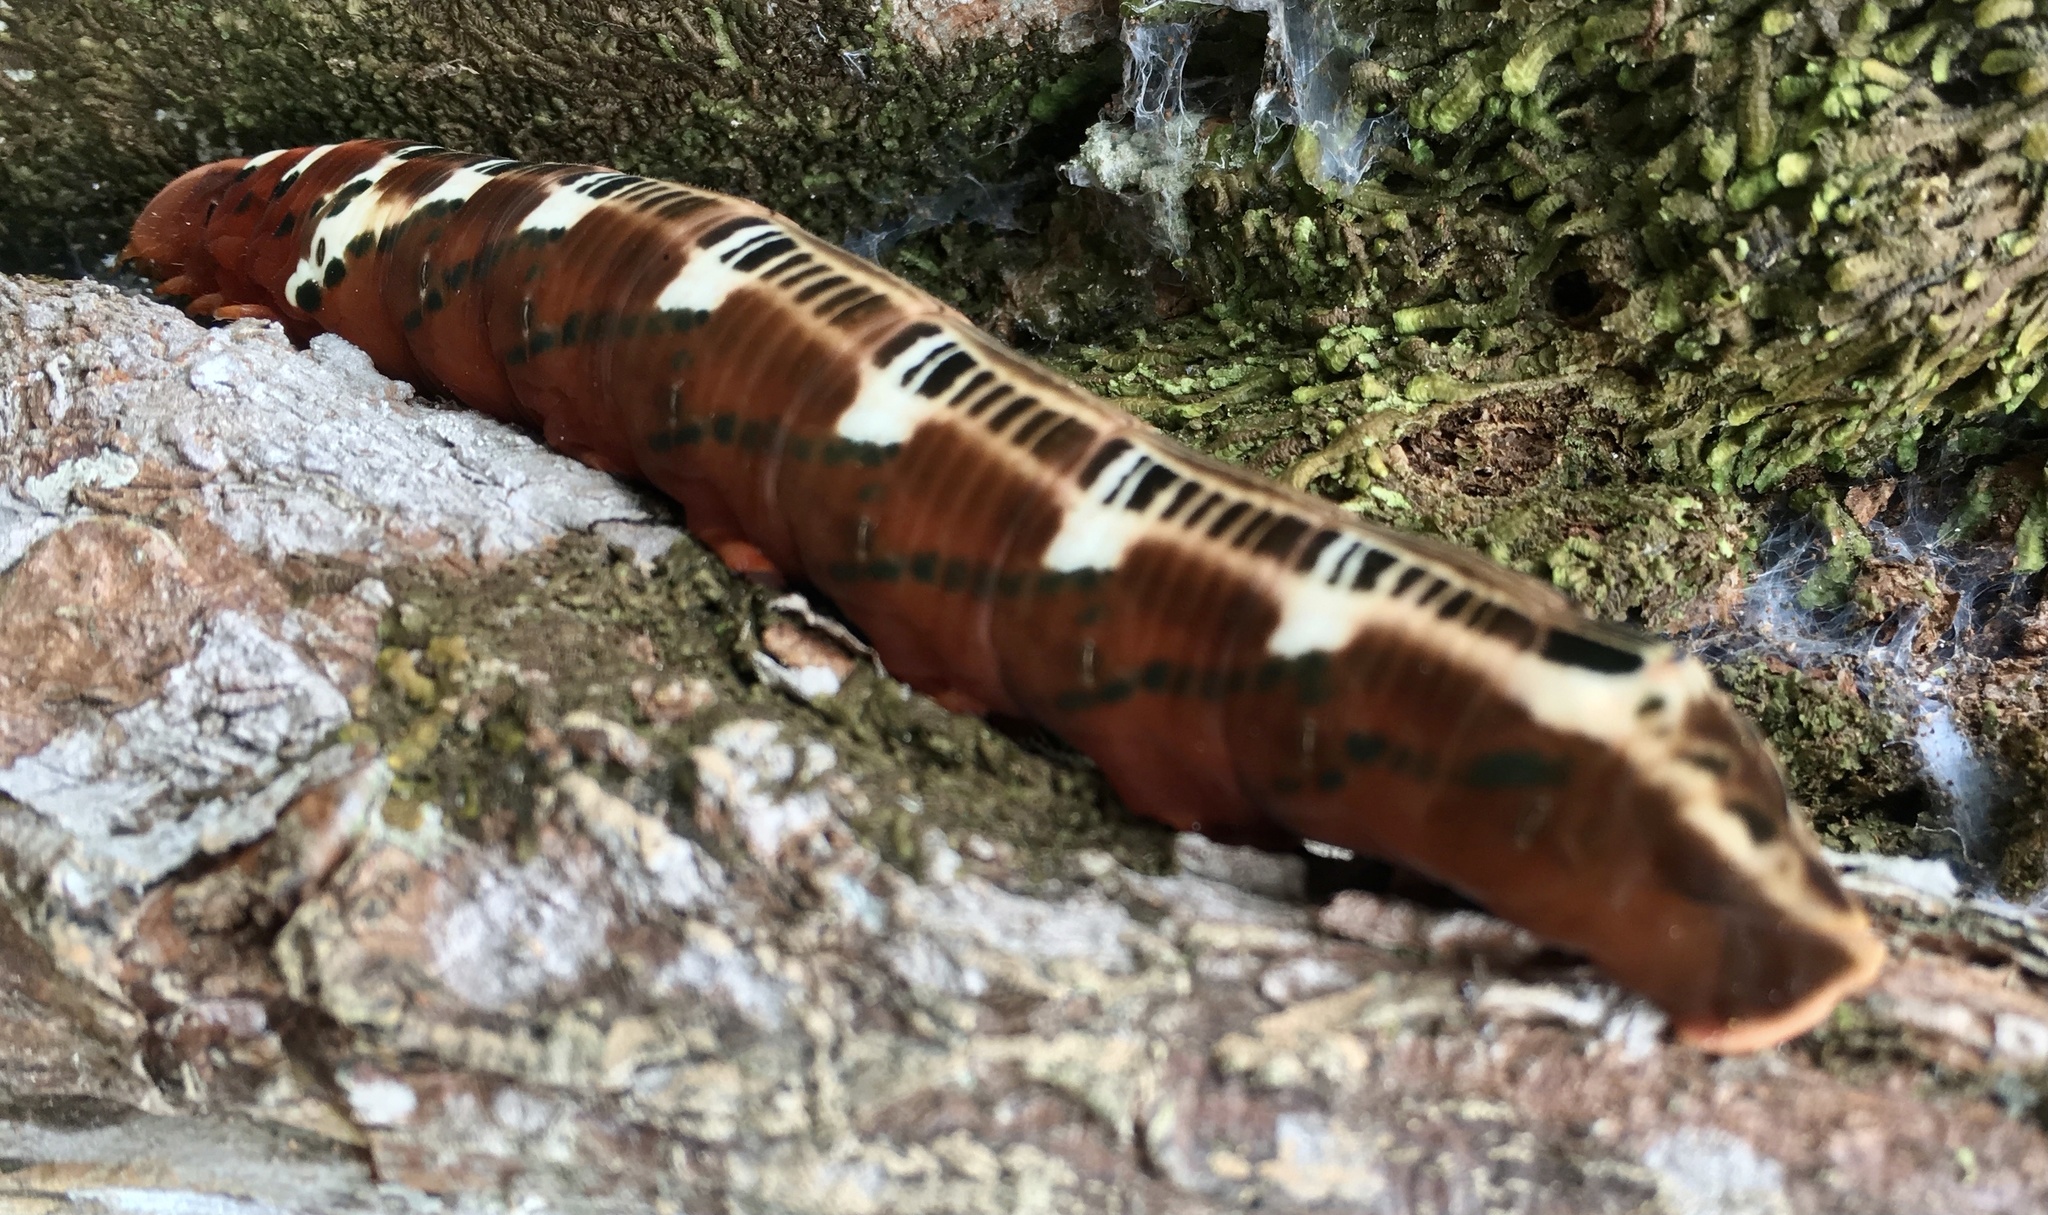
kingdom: Animalia
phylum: Arthropoda
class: Insecta
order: Lepidoptera
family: Sphingidae
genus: Oryba
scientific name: Oryba kadeni
